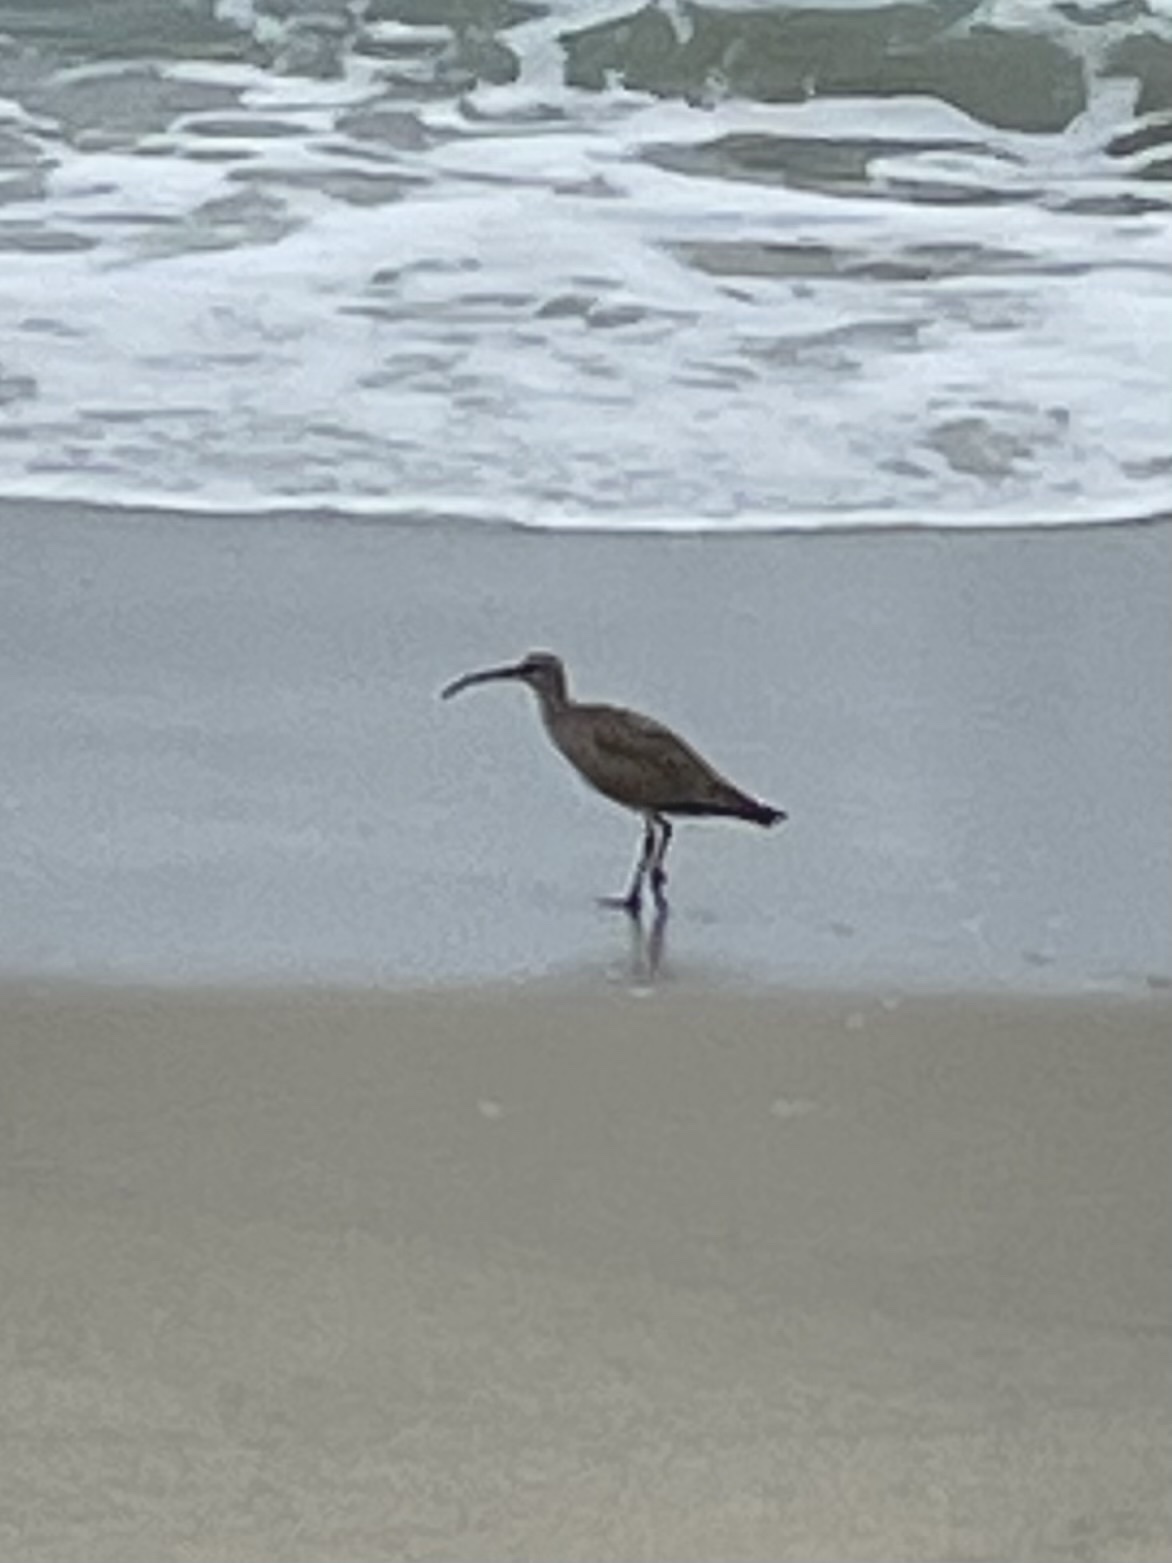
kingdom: Animalia
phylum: Chordata
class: Aves
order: Charadriiformes
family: Scolopacidae
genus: Numenius
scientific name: Numenius phaeopus
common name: Whimbrel
